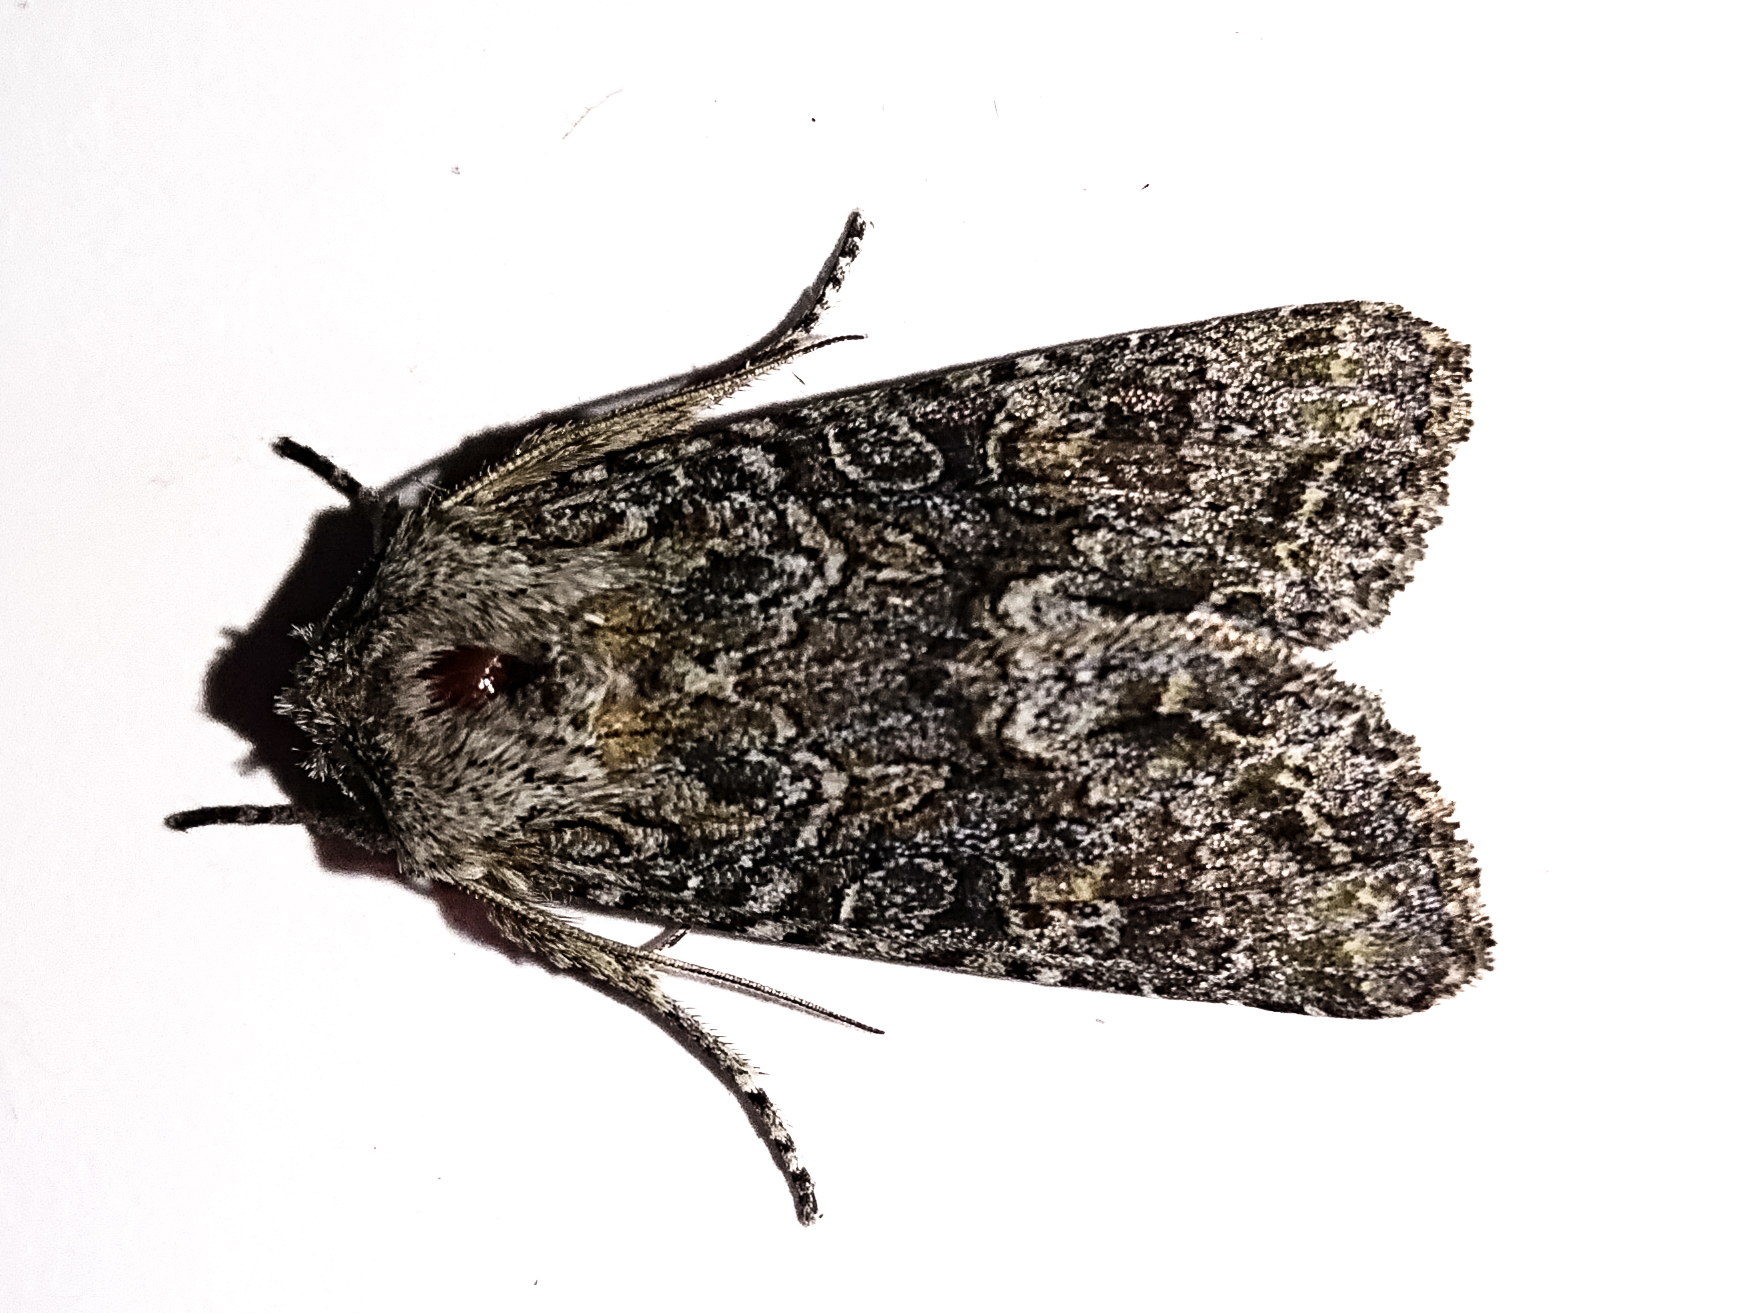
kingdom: Animalia
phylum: Arthropoda
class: Insecta
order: Lepidoptera
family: Noctuidae
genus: Physetica
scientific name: Physetica cucullina
